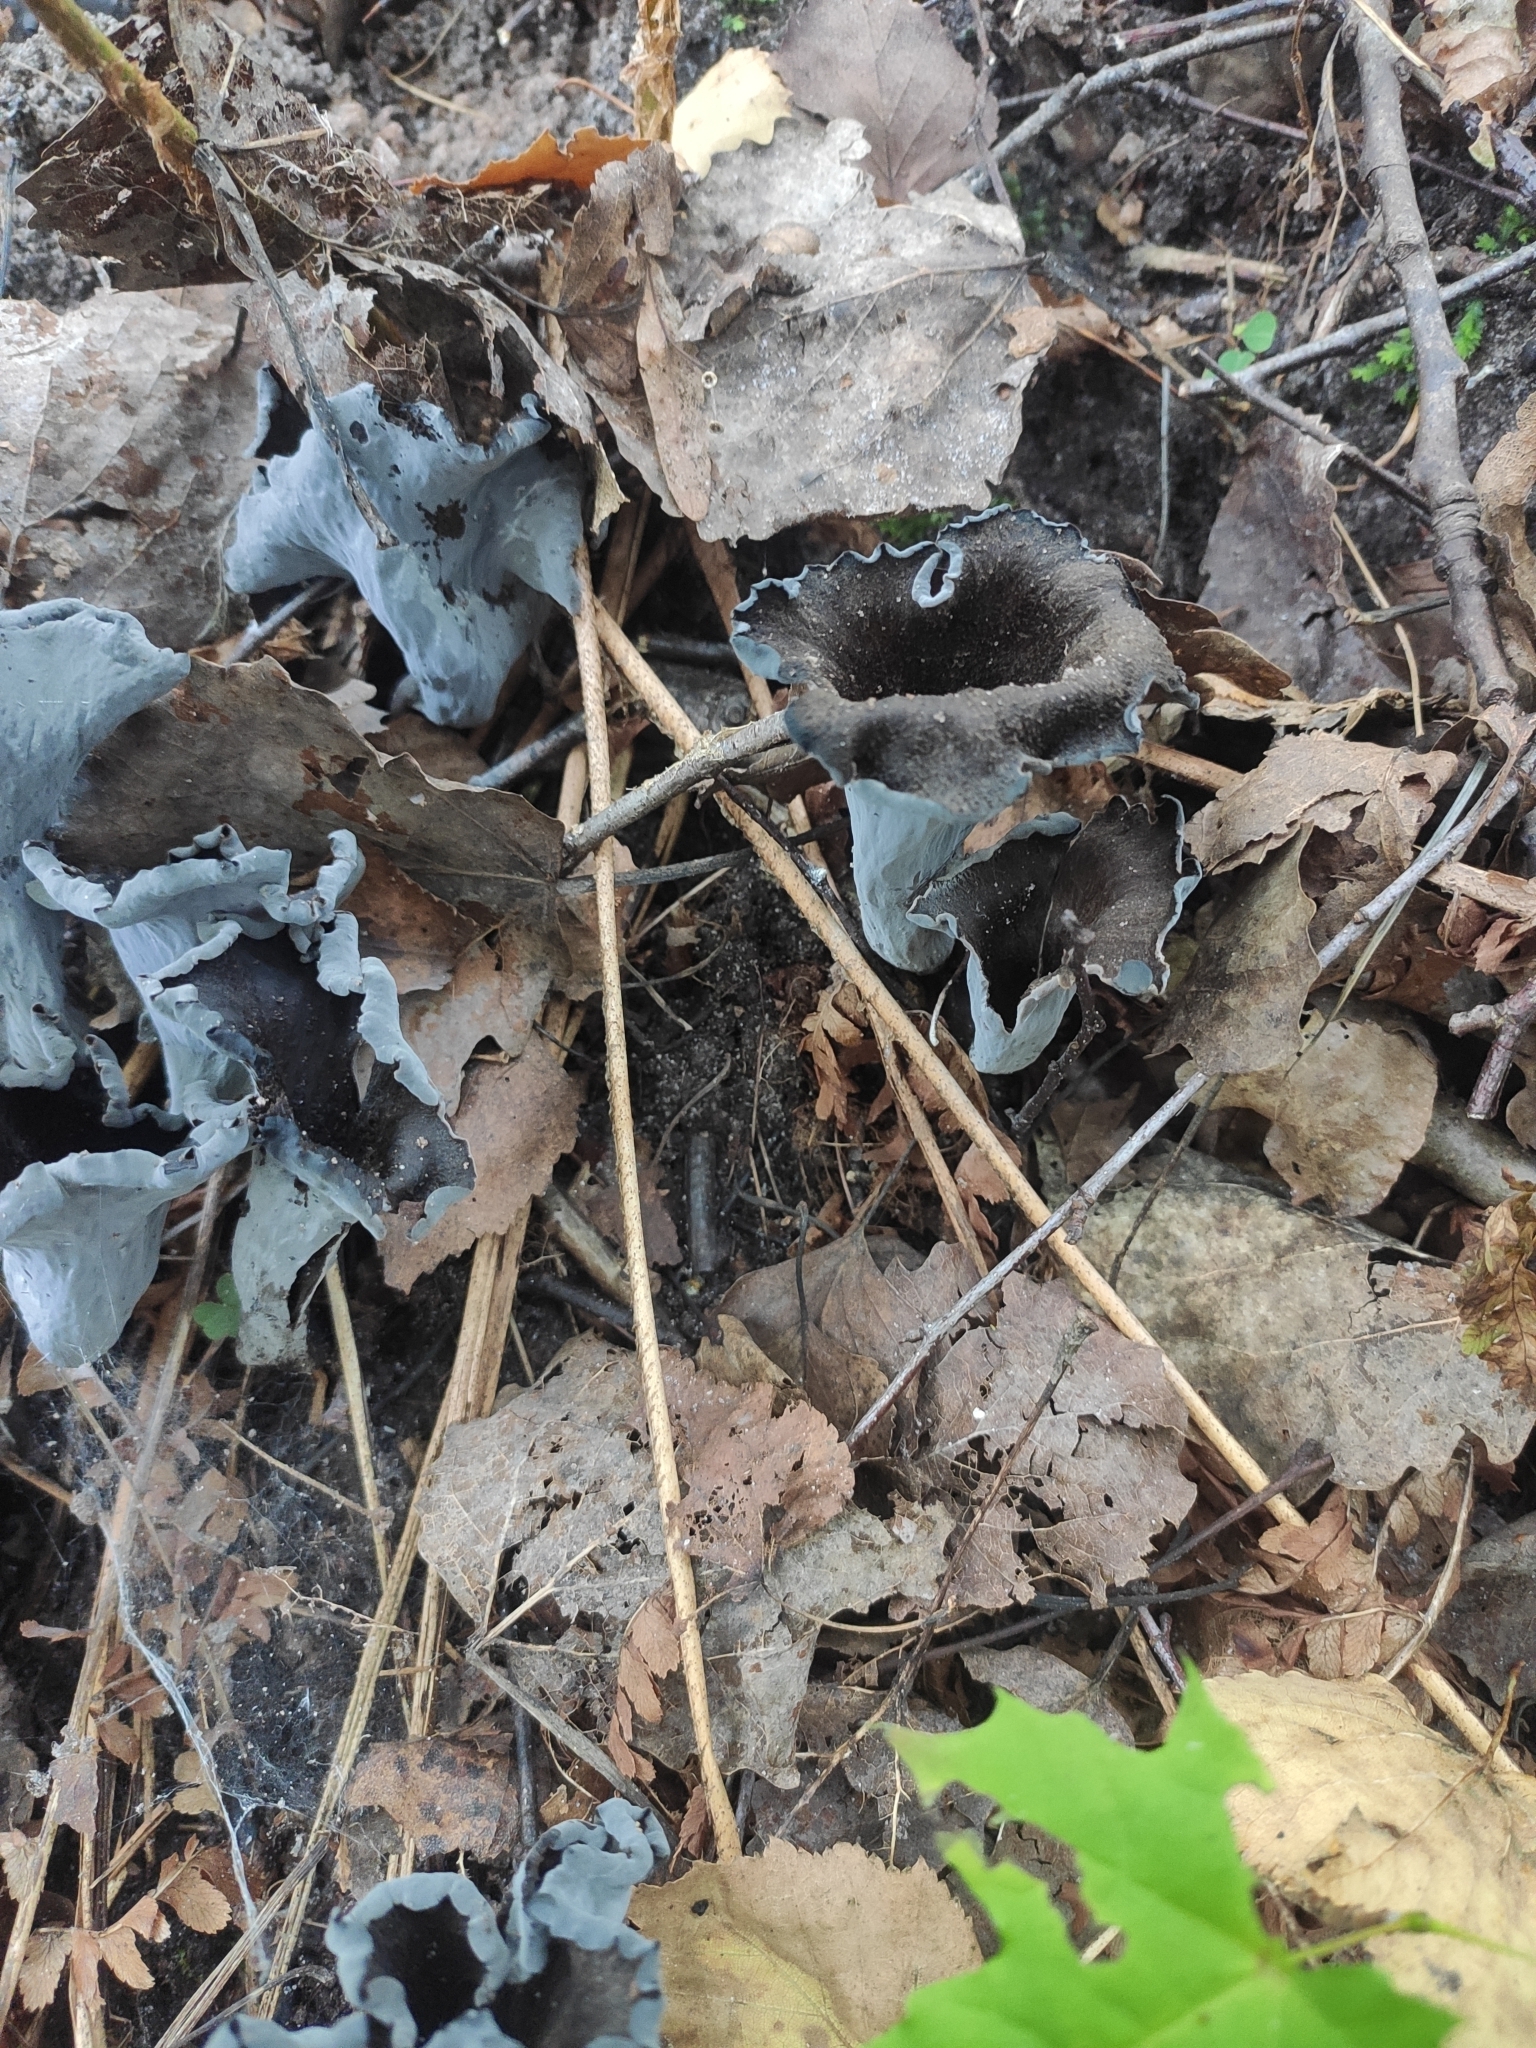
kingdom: Fungi
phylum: Basidiomycota
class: Agaricomycetes
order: Cantharellales
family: Hydnaceae
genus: Craterellus
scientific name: Craterellus cornucopioides
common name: Horn of plenty
